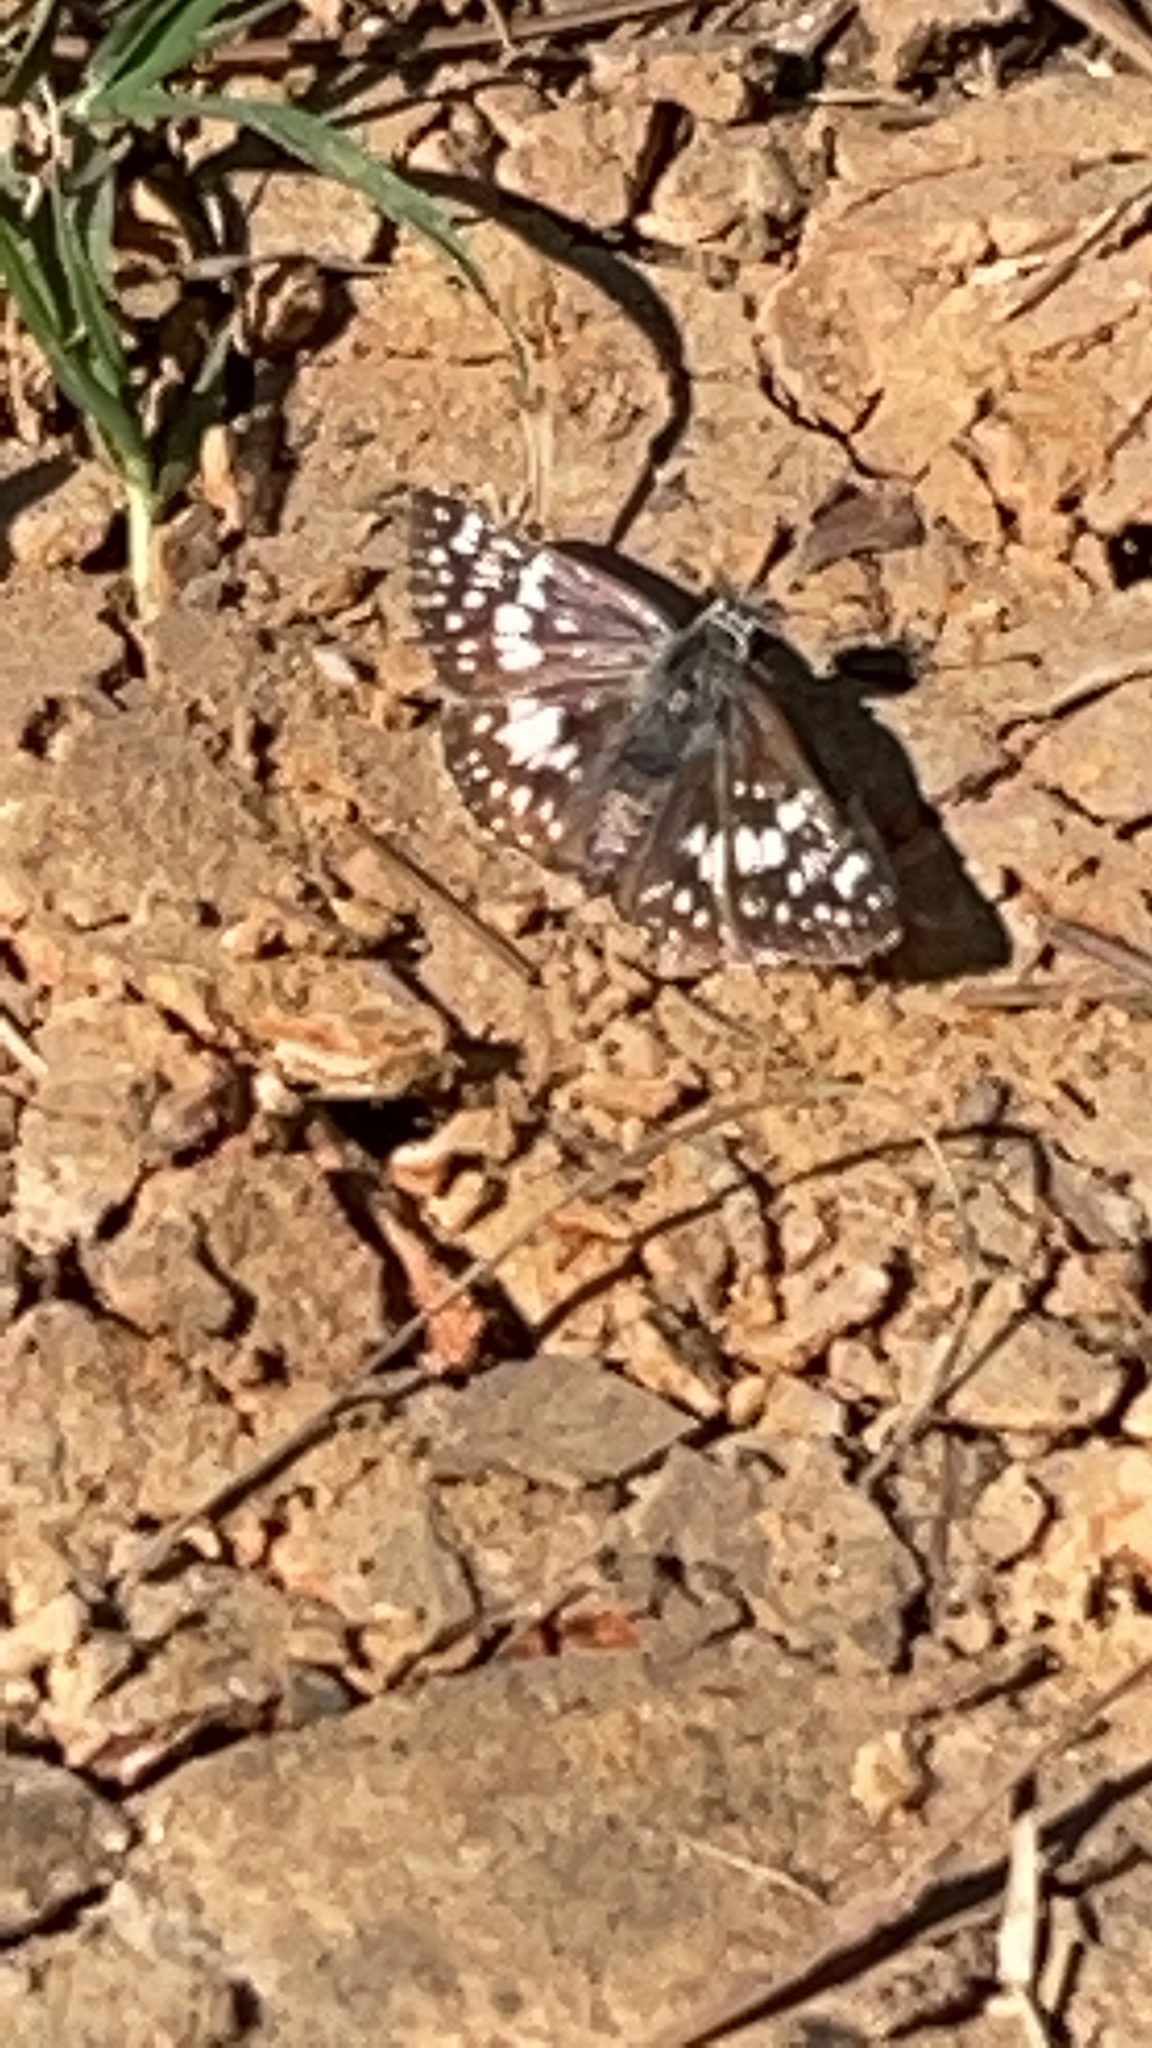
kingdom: Animalia
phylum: Arthropoda
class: Insecta
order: Lepidoptera
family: Hesperiidae
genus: Burnsius
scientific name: Burnsius communis
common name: Common checkered-skipper
